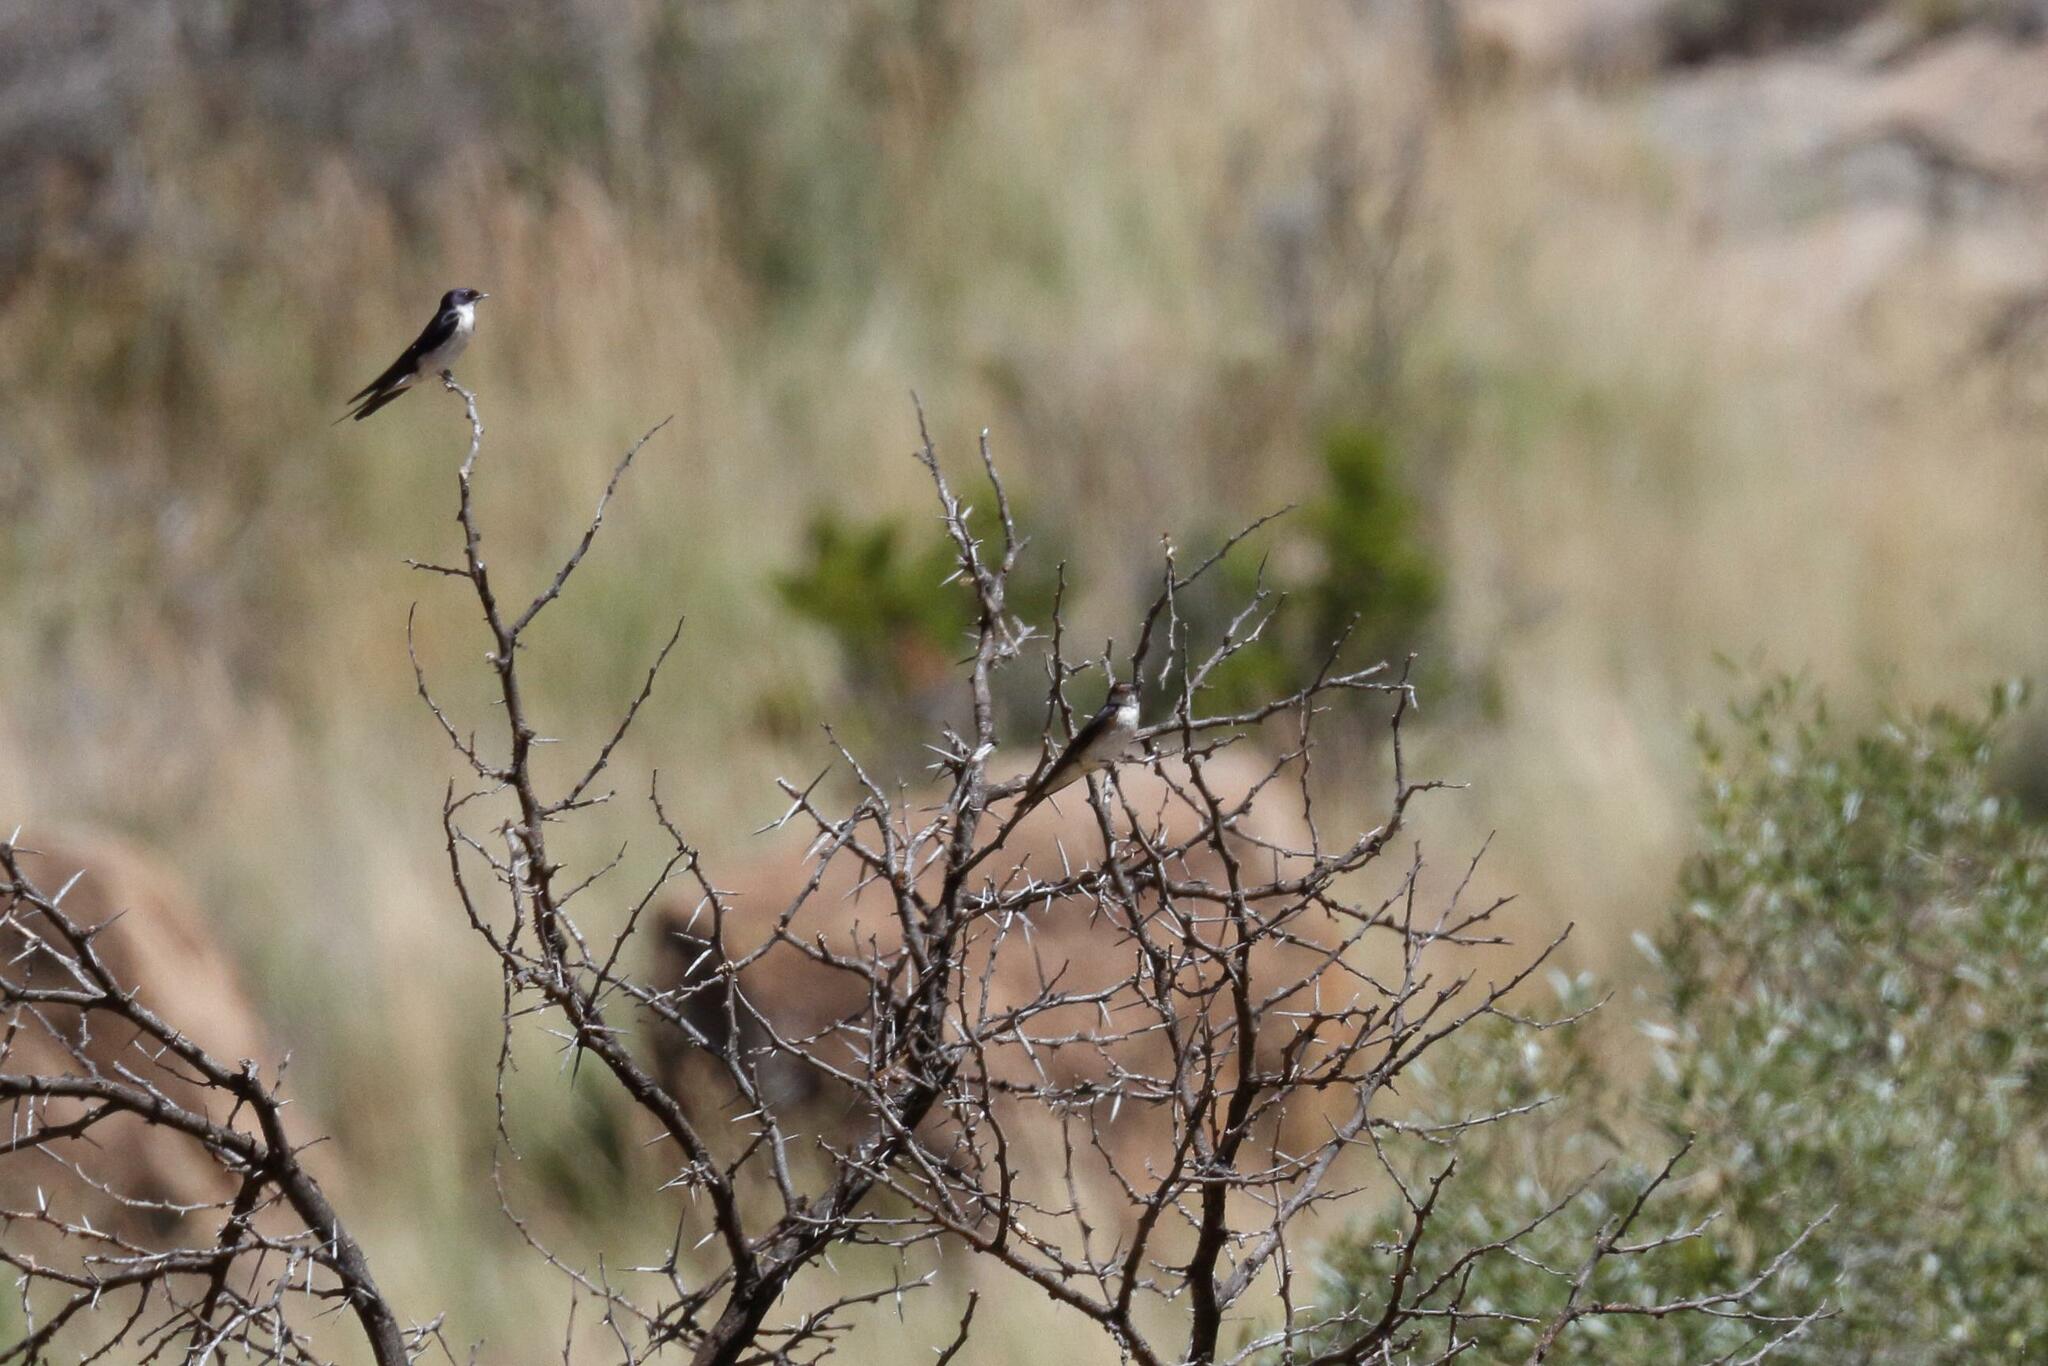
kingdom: Animalia
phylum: Chordata
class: Aves
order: Passeriformes
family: Hirundinidae
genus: Hirundo
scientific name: Hirundo dimidiata
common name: Pearl-breasted swallow
